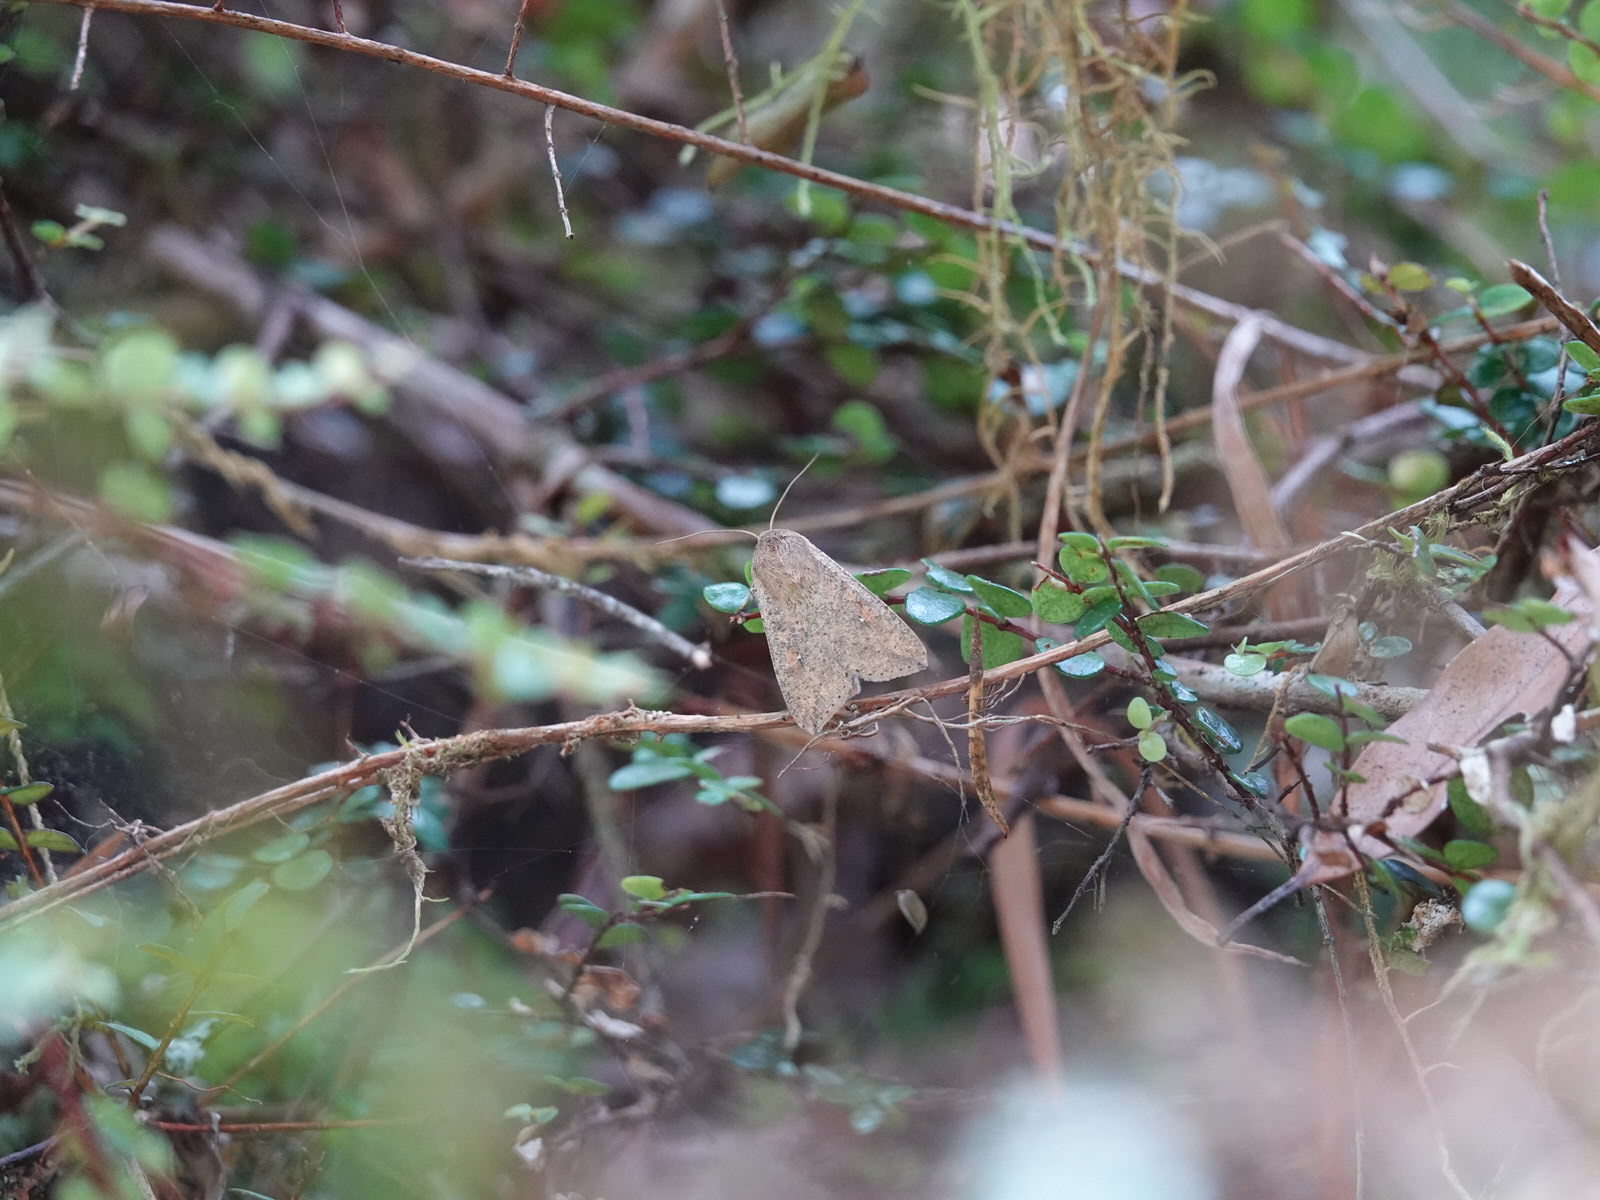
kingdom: Animalia
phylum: Arthropoda
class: Insecta
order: Lepidoptera
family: Noctuidae
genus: Mythimna
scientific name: Mythimna separata
